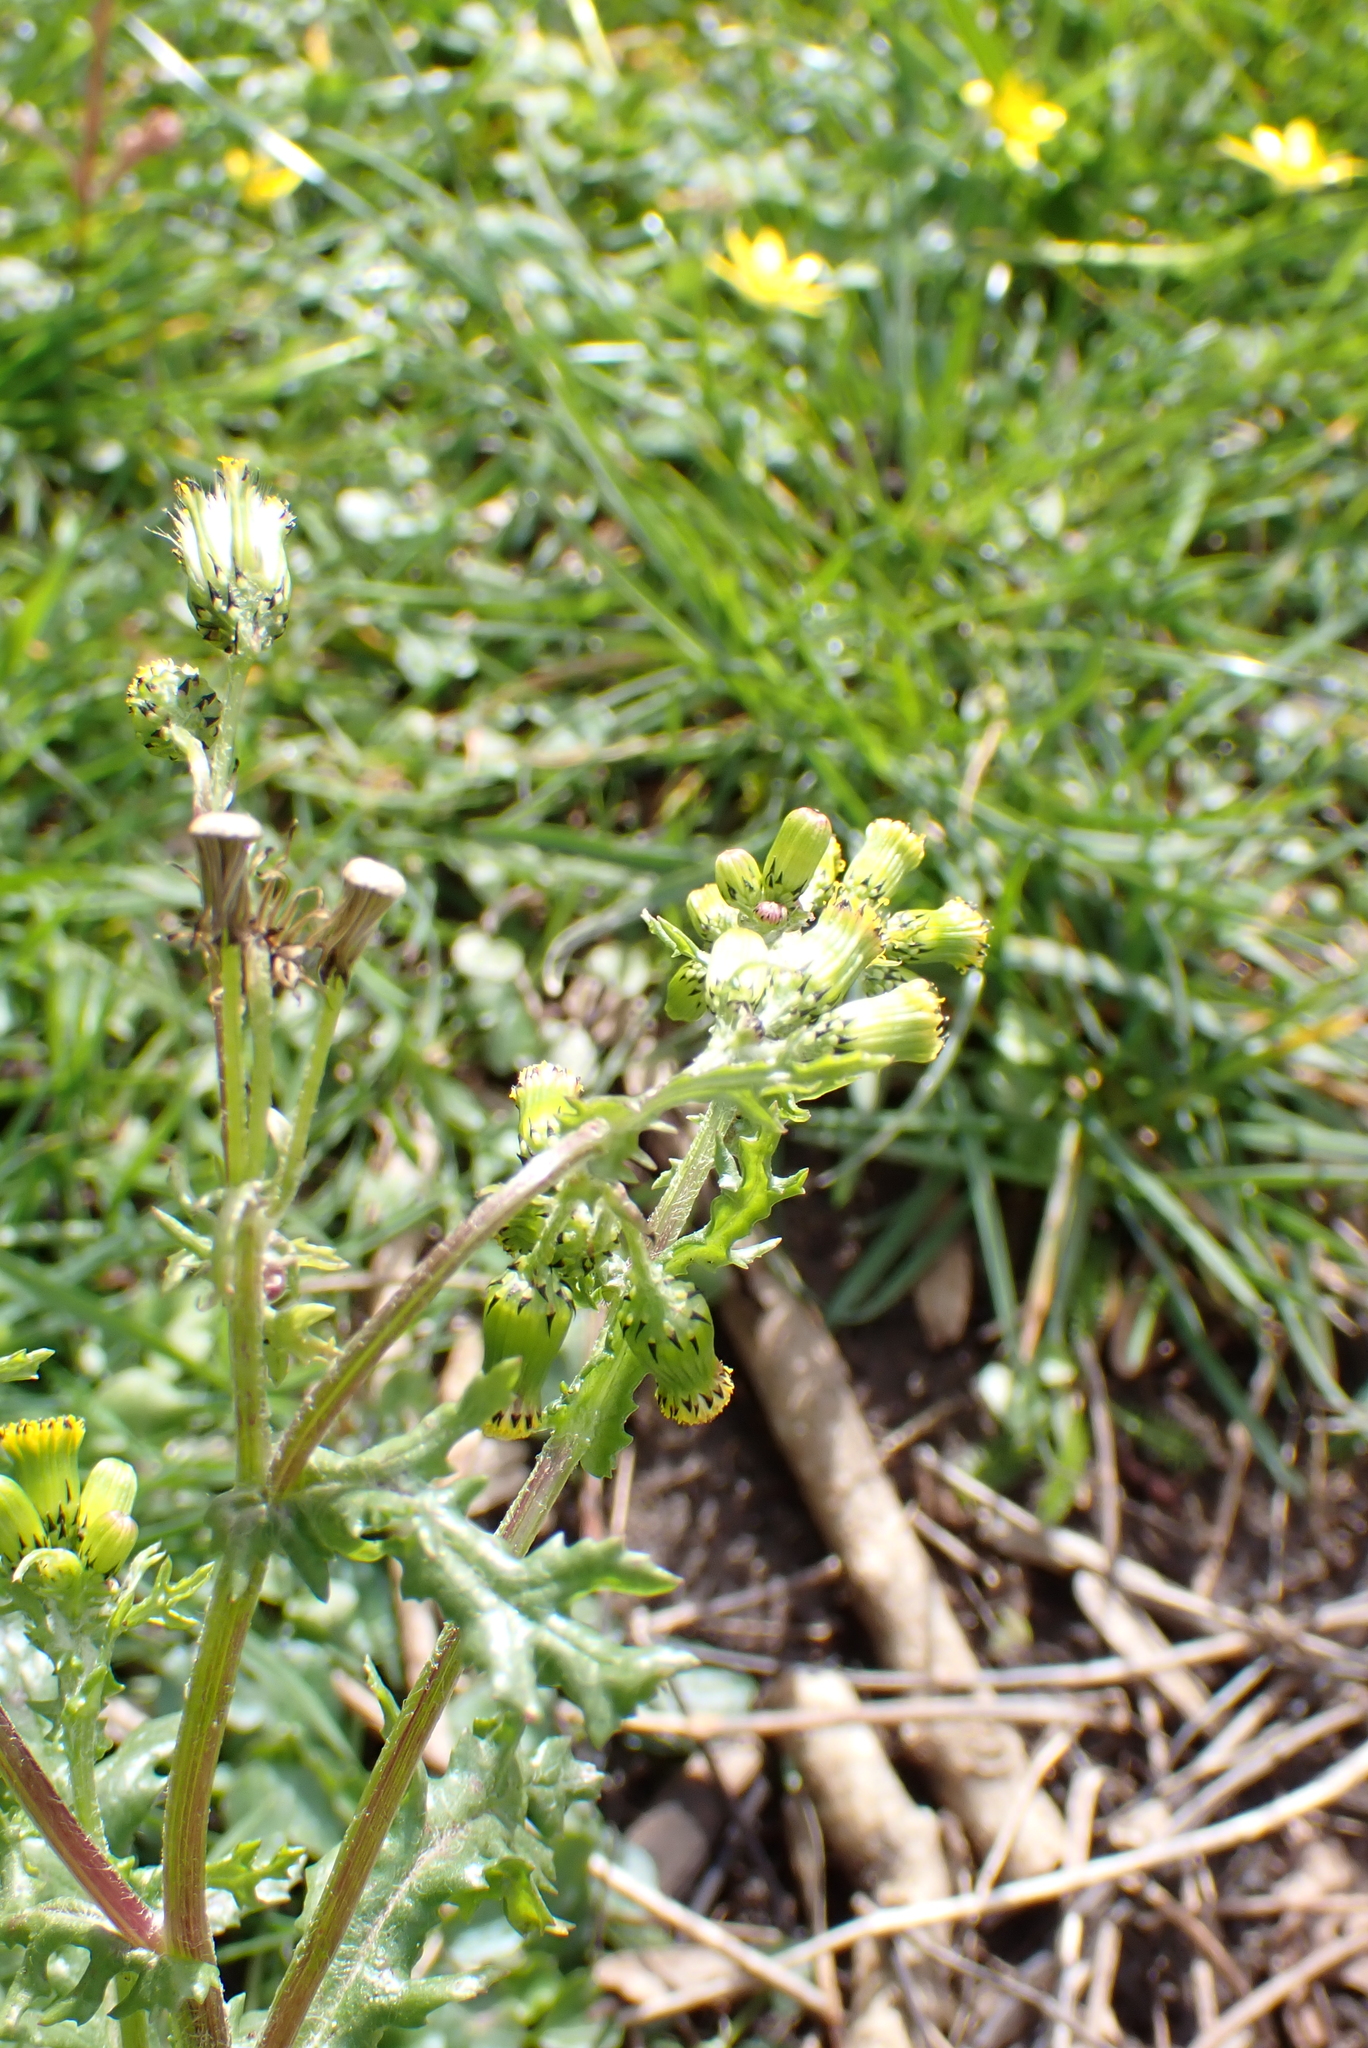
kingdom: Plantae
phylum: Tracheophyta
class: Magnoliopsida
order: Asterales
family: Asteraceae
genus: Senecio
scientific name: Senecio vulgaris
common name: Old-man-in-the-spring
